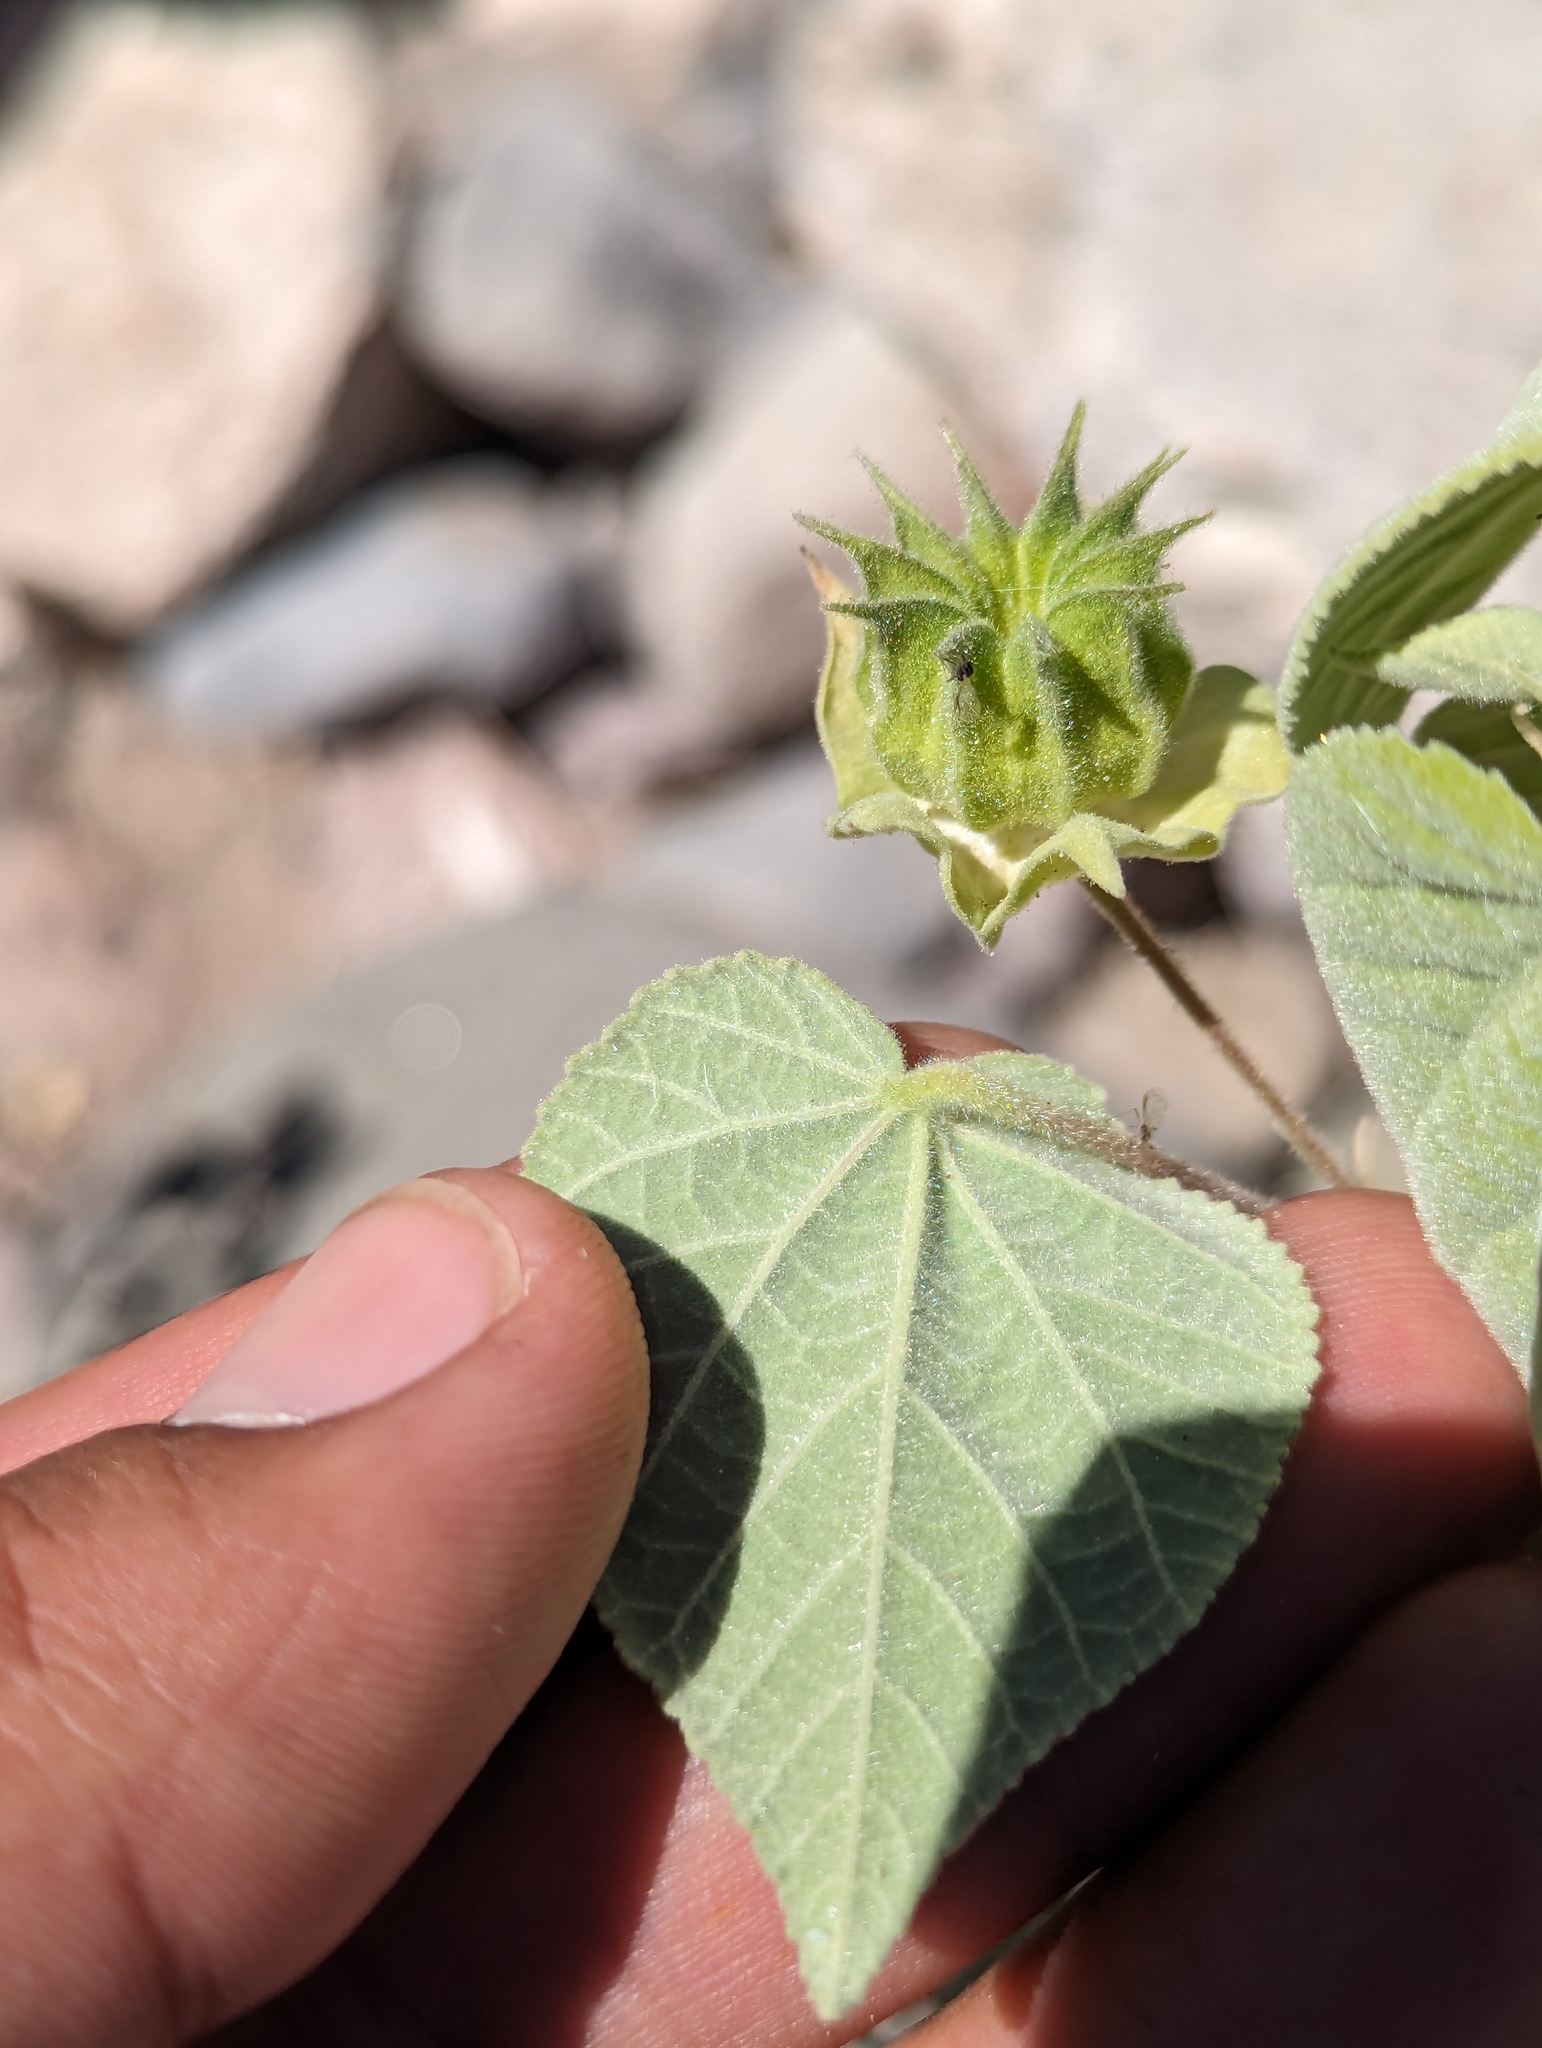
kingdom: Plantae
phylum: Tracheophyta
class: Magnoliopsida
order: Malvales
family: Malvaceae
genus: Abutilon
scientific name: Abutilon dugesii
